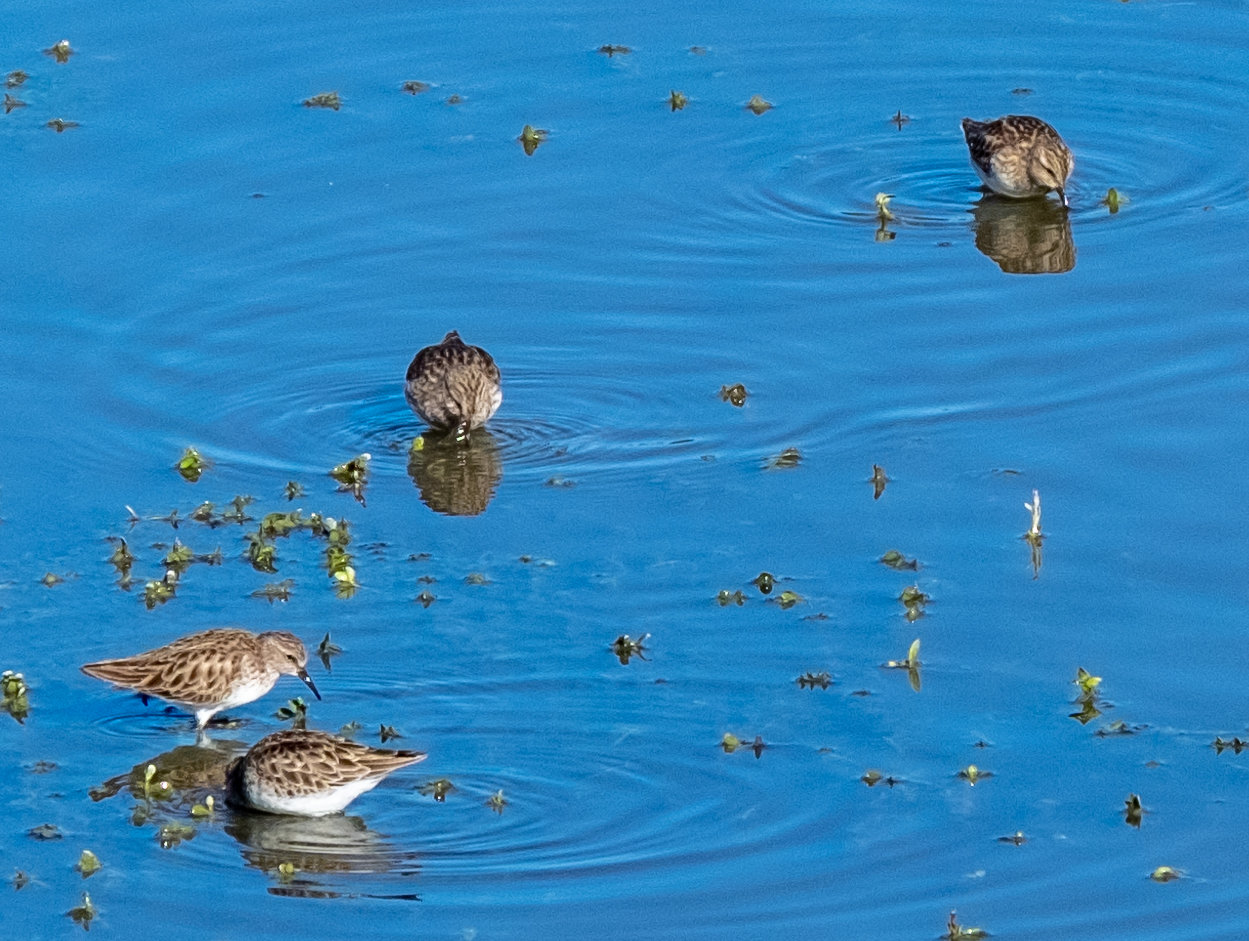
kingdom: Animalia
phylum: Chordata
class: Aves
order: Charadriiformes
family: Scolopacidae
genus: Calidris
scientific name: Calidris minutilla
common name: Least sandpiper
